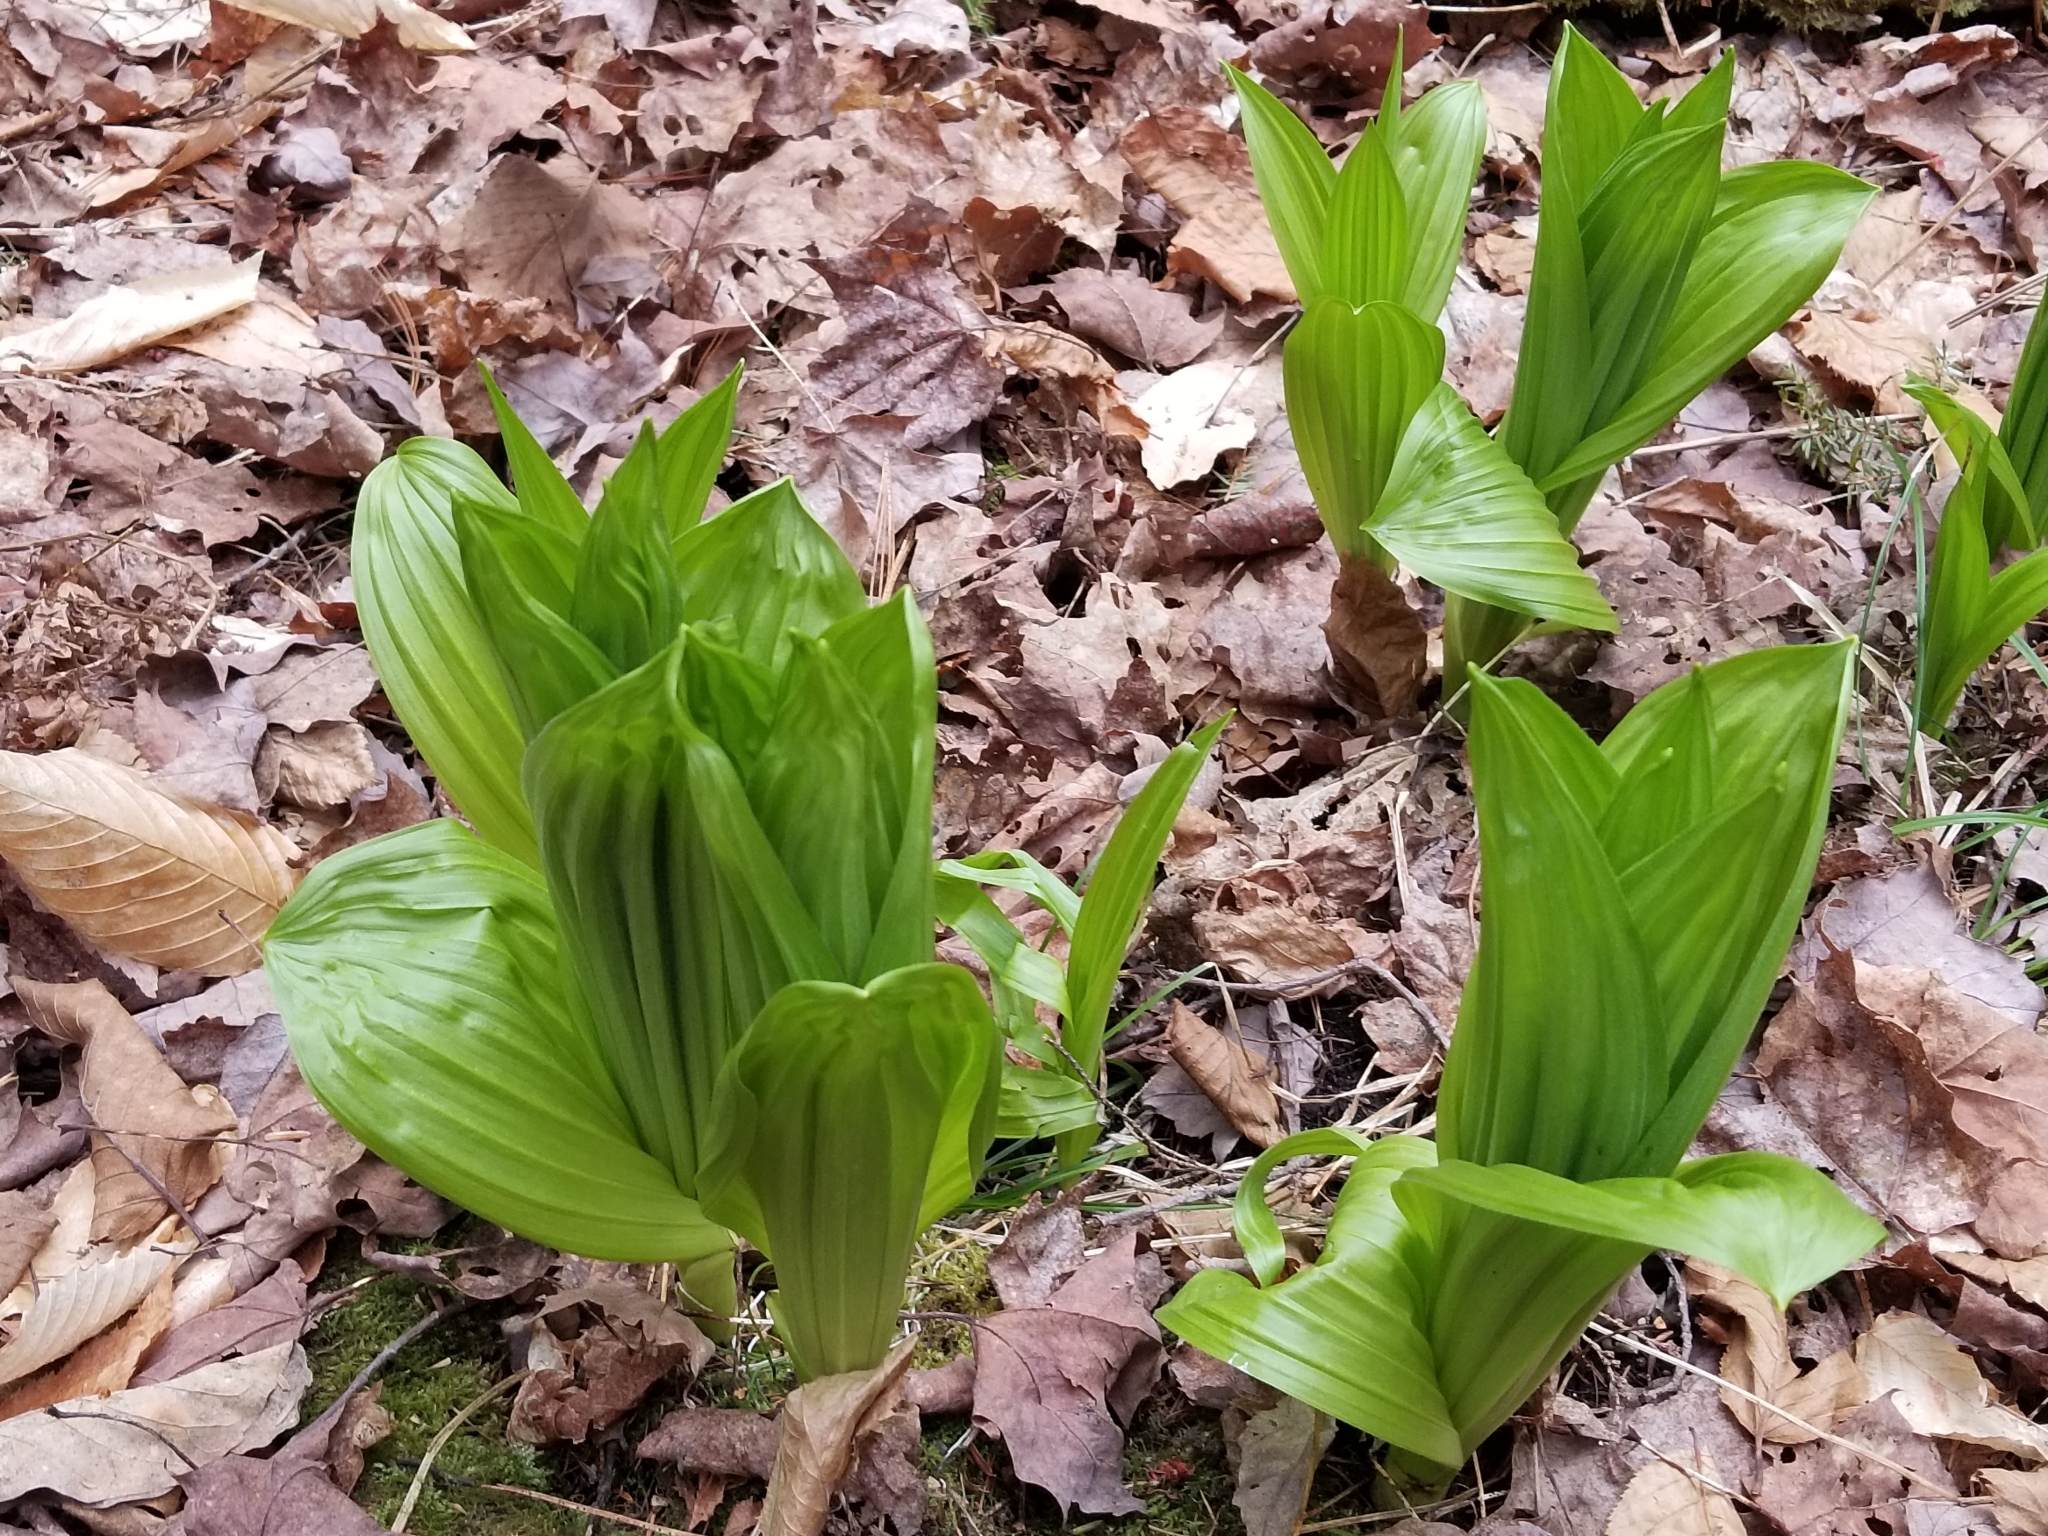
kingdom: Plantae
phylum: Tracheophyta
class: Liliopsida
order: Liliales
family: Melanthiaceae
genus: Veratrum
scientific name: Veratrum viride
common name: American false hellebore
